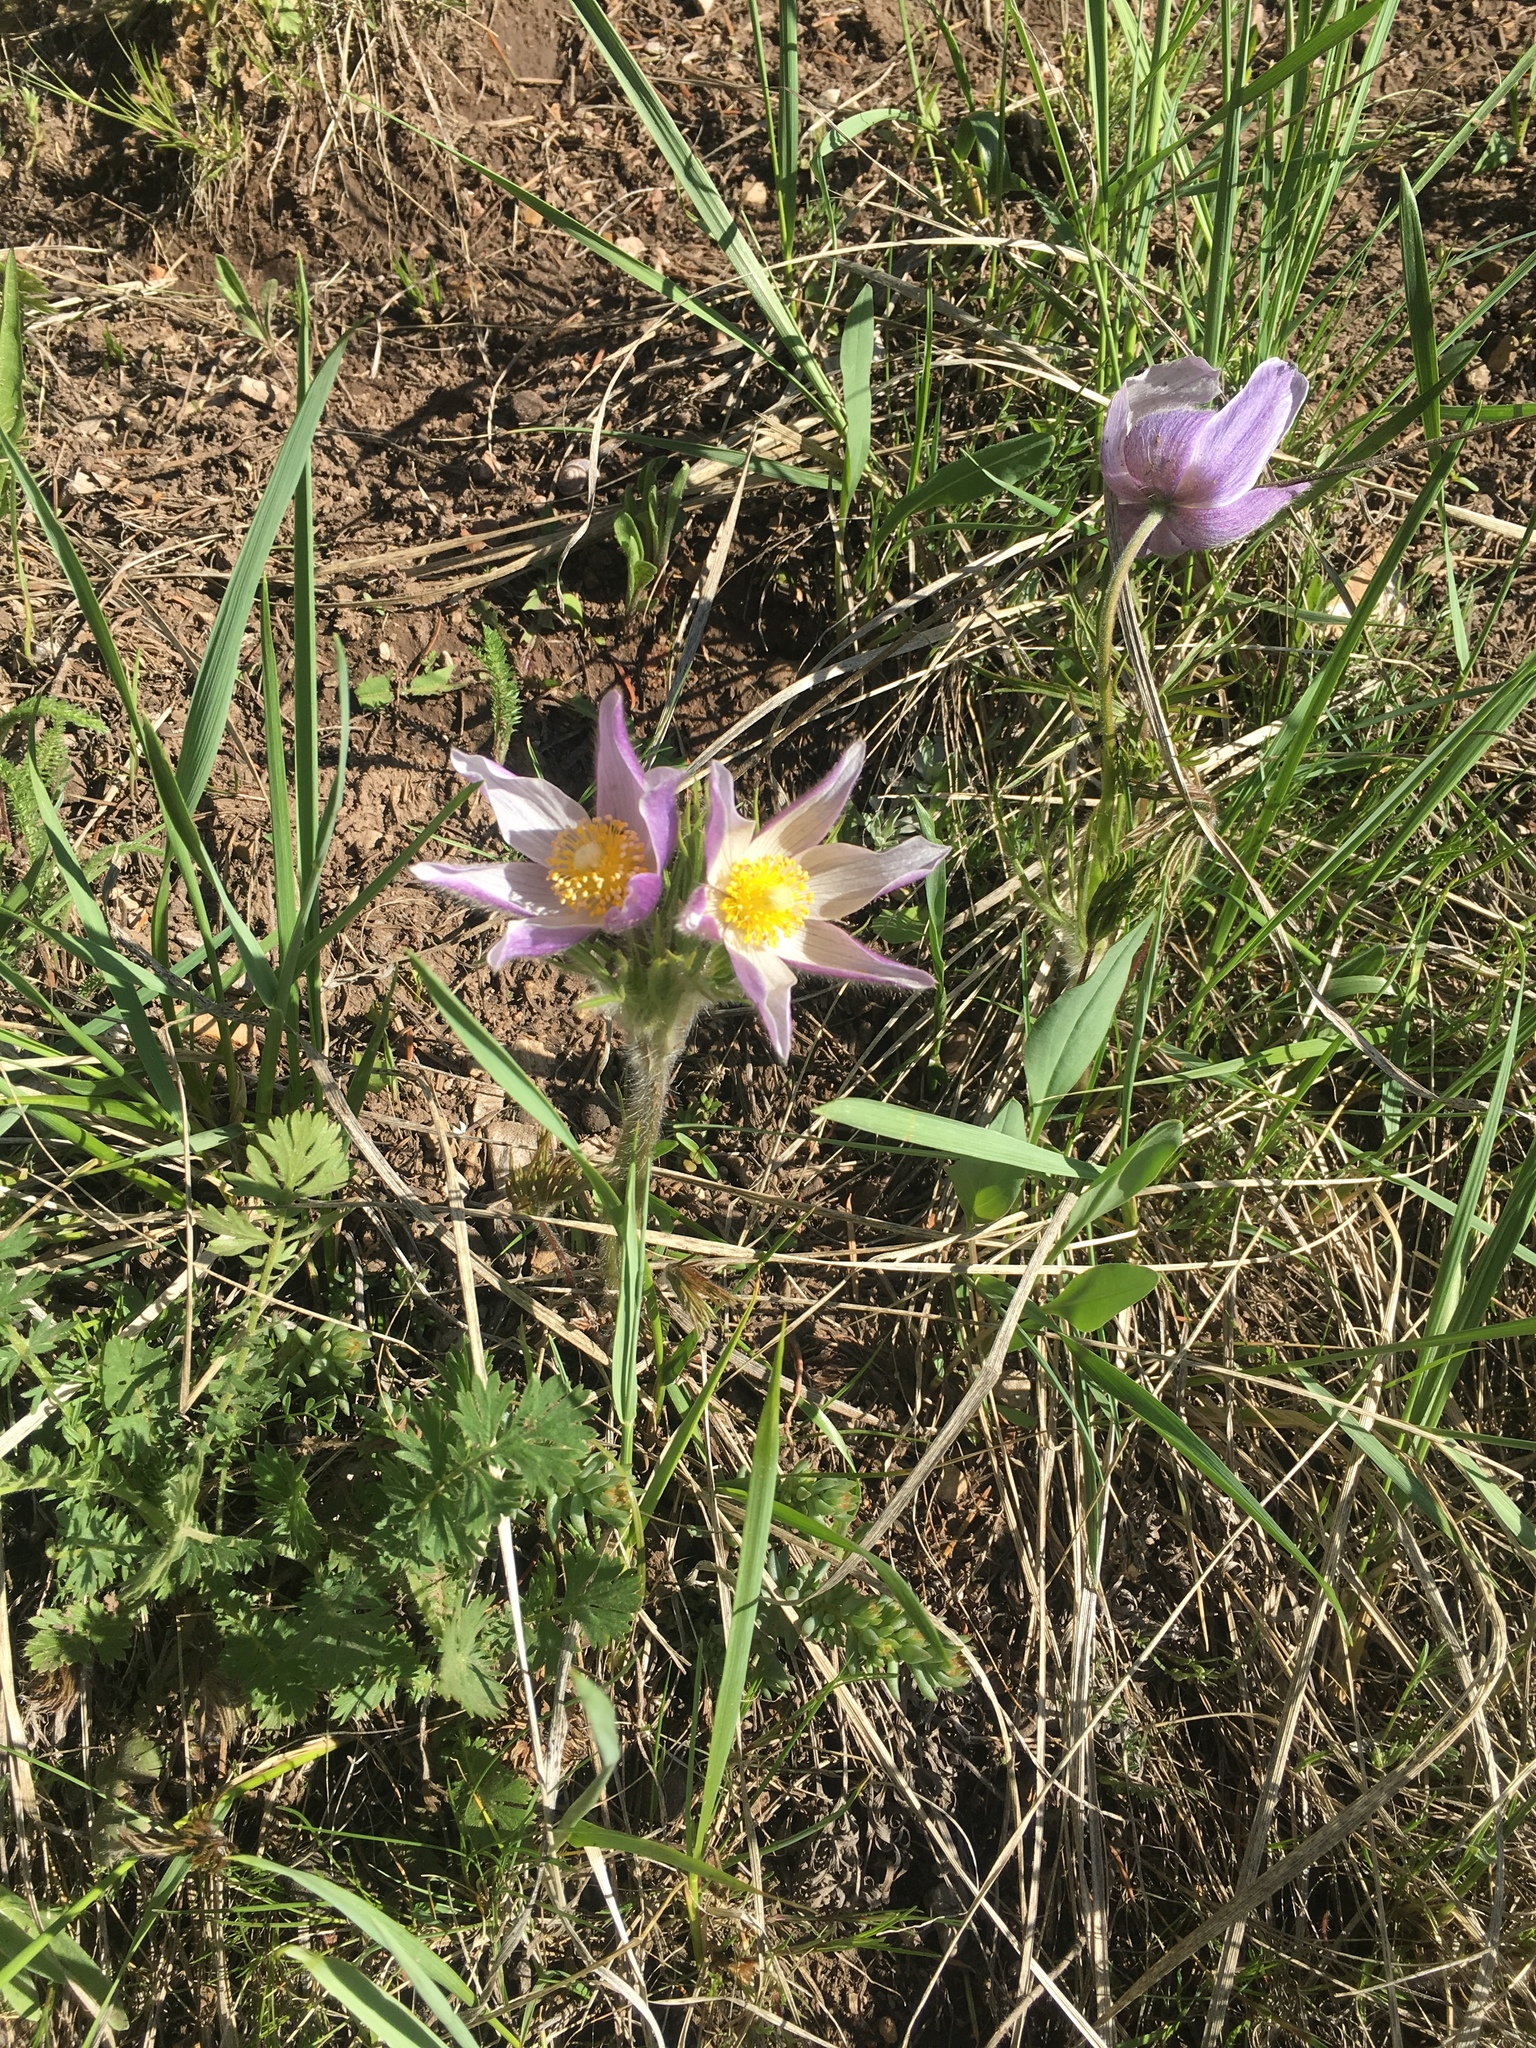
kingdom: Plantae
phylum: Tracheophyta
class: Magnoliopsida
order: Ranunculales
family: Ranunculaceae
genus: Pulsatilla
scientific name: Pulsatilla nuttalliana
